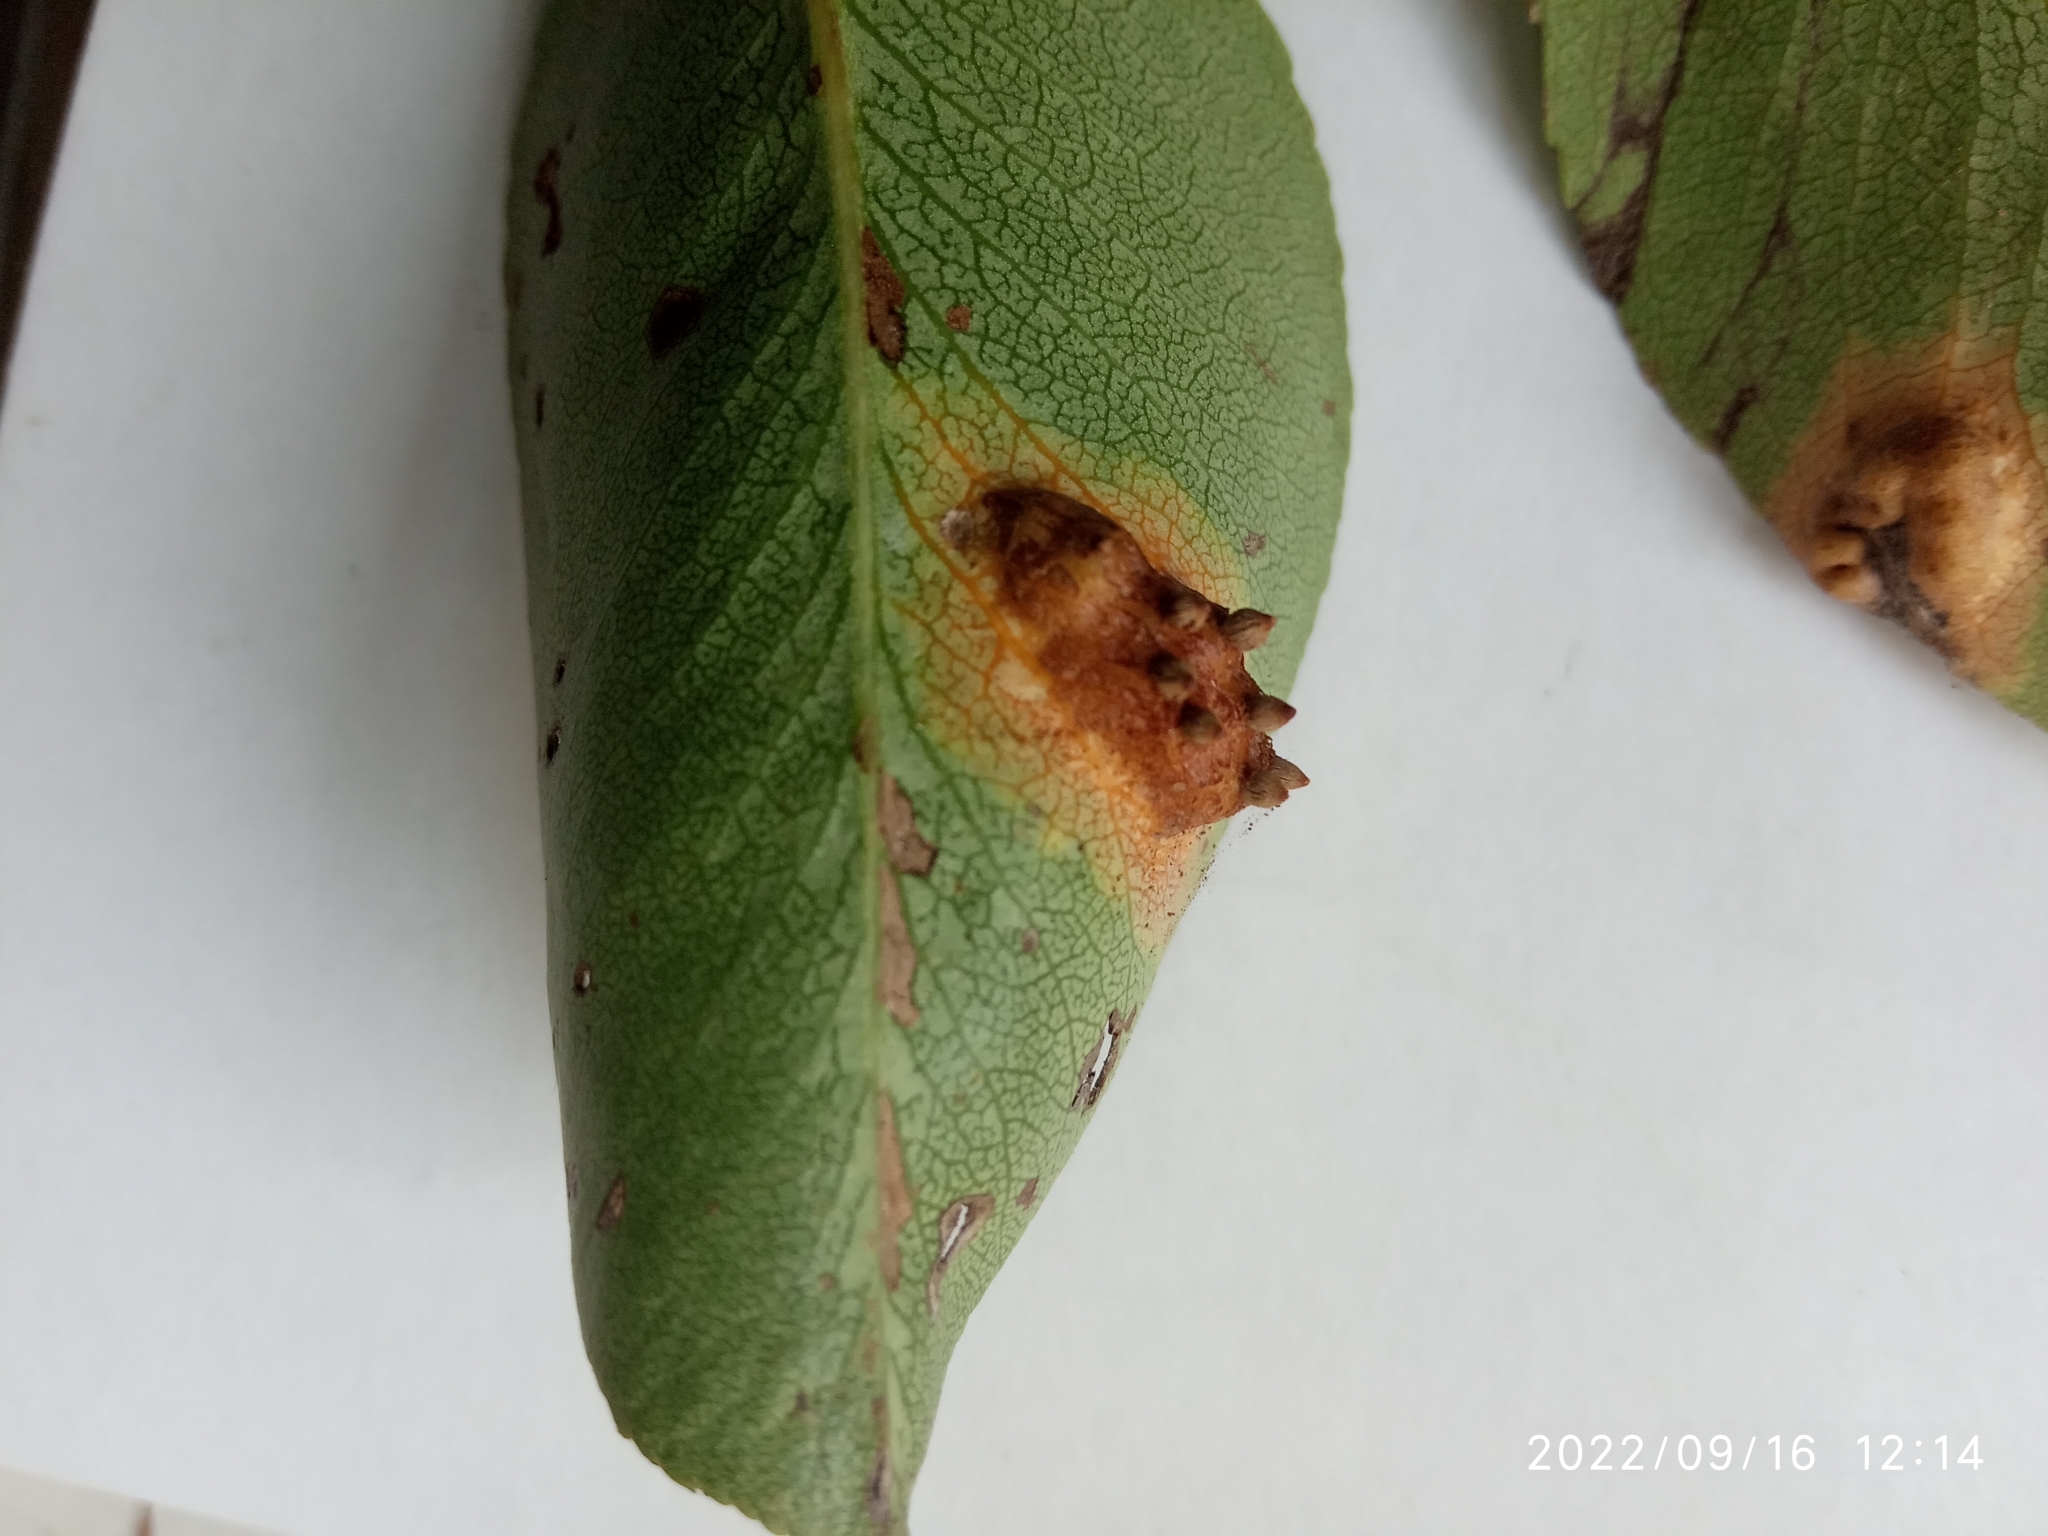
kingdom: Fungi
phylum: Basidiomycota
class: Pucciniomycetes
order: Pucciniales
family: Gymnosporangiaceae
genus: Gymnosporangium
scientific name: Gymnosporangium sabinae
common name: Pear trellis rust fungus
